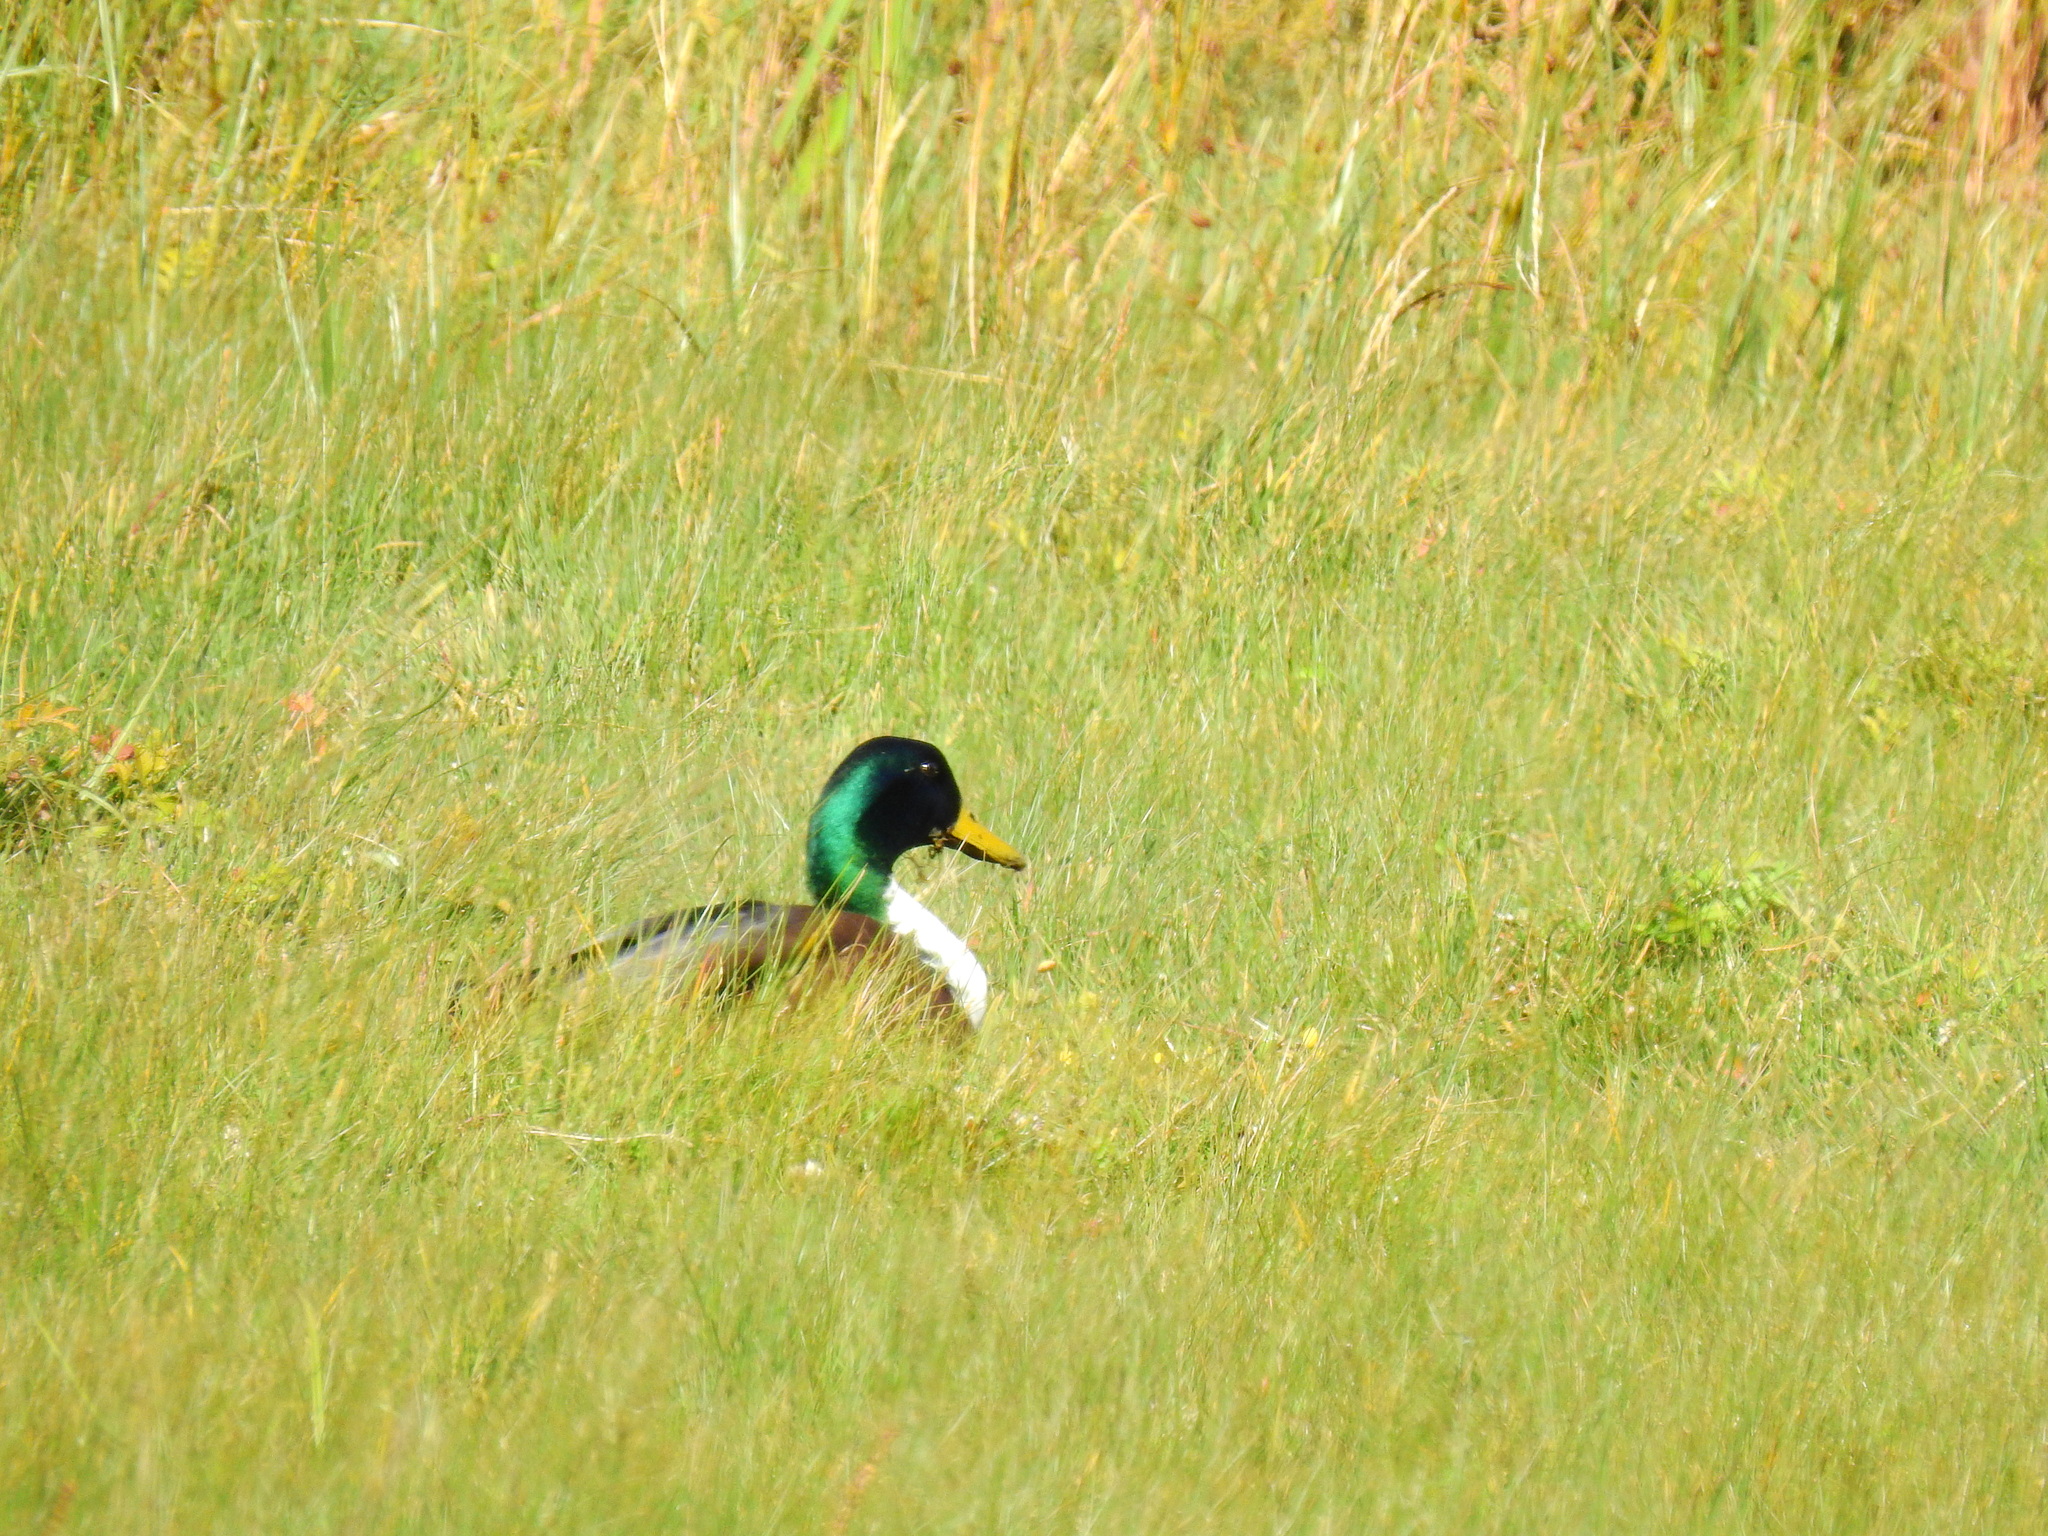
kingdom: Animalia
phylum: Chordata
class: Aves
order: Anseriformes
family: Anatidae
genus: Anas
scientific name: Anas platyrhynchos
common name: Mallard
